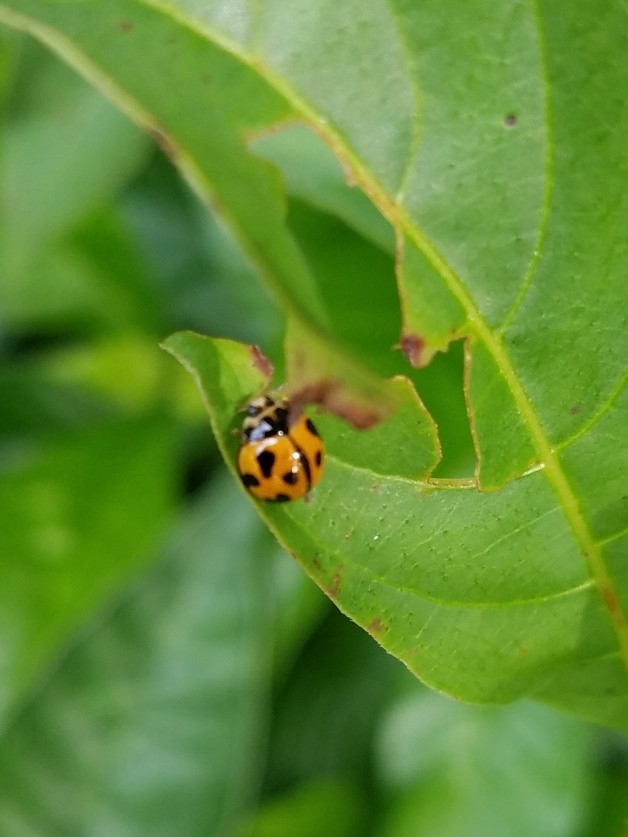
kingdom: Animalia
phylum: Arthropoda
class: Insecta
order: Coleoptera
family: Coccinellidae
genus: Coelophora
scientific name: Coelophora inaequalis
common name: Common australian lady beetle
